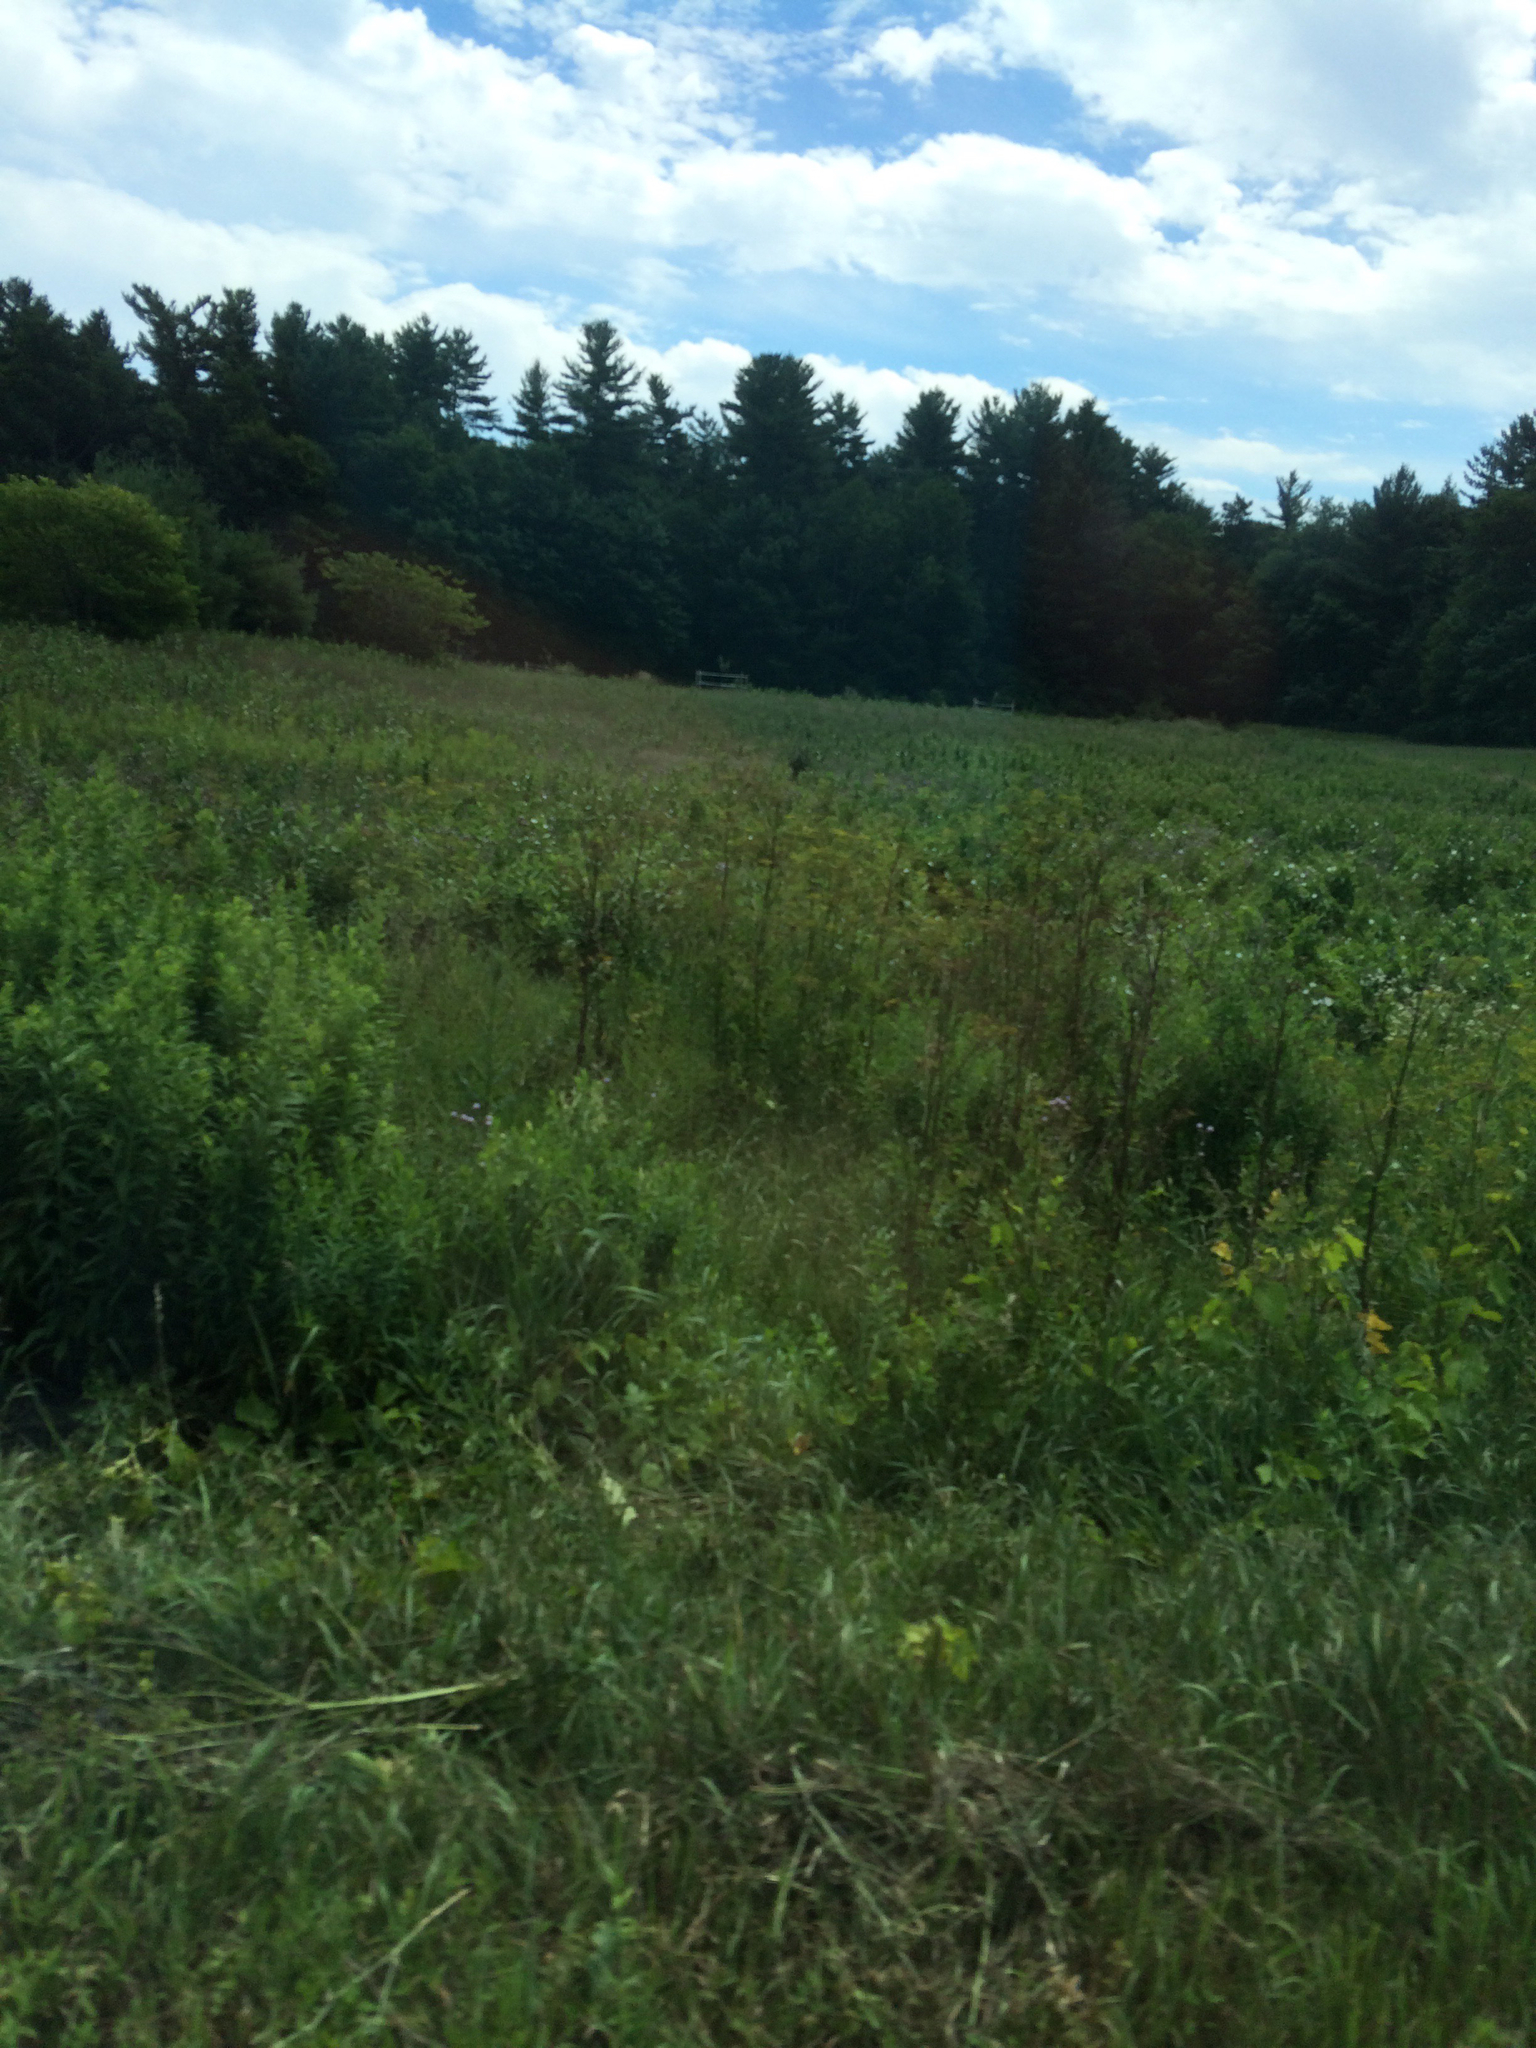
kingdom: Plantae
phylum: Tracheophyta
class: Magnoliopsida
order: Apiales
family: Apiaceae
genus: Pastinaca
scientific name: Pastinaca sativa
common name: Wild parsnip
